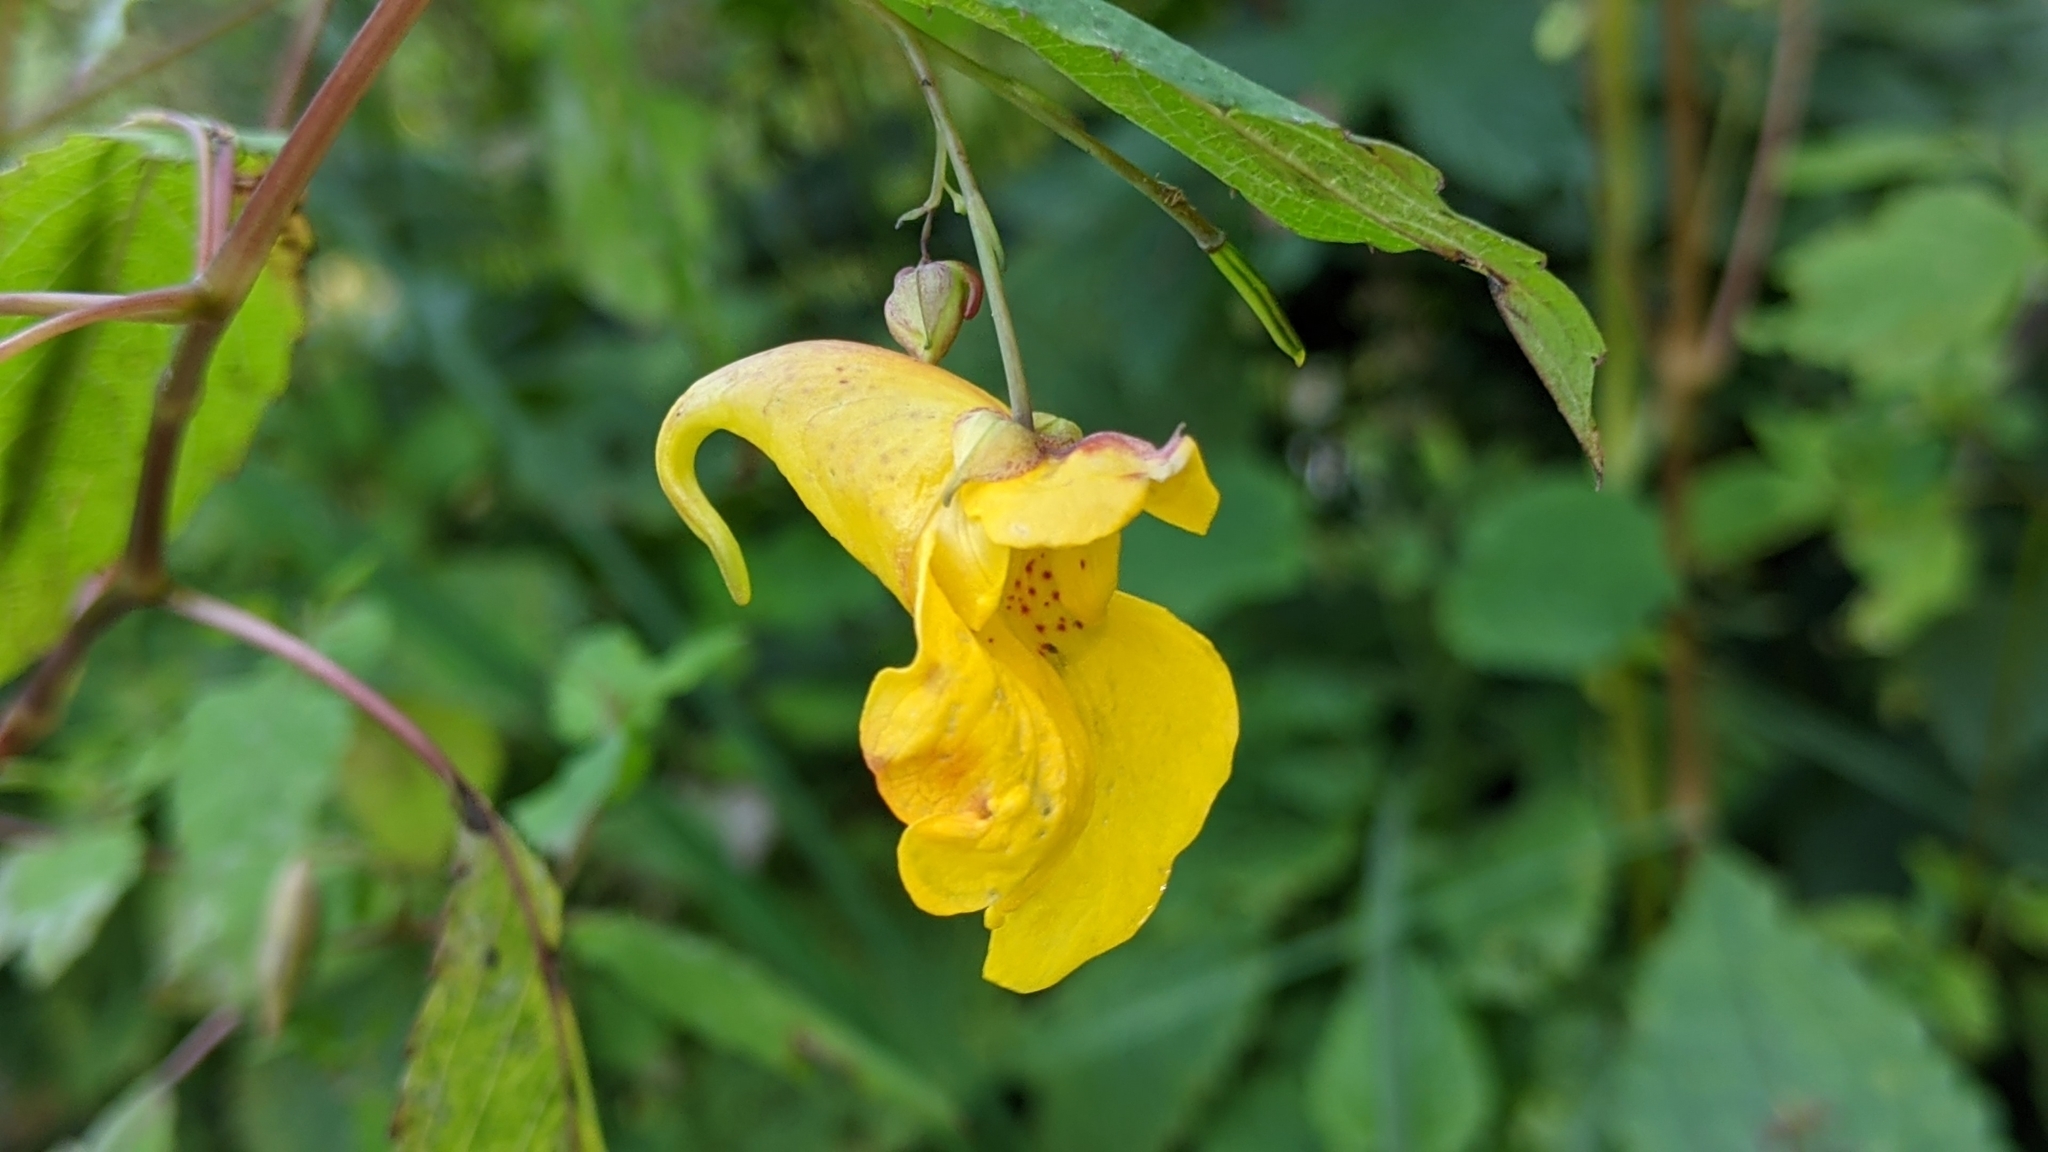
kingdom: Plantae
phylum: Tracheophyta
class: Magnoliopsida
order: Ericales
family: Balsaminaceae
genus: Impatiens
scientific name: Impatiens noli-tangere
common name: Touch-me-not balsam
